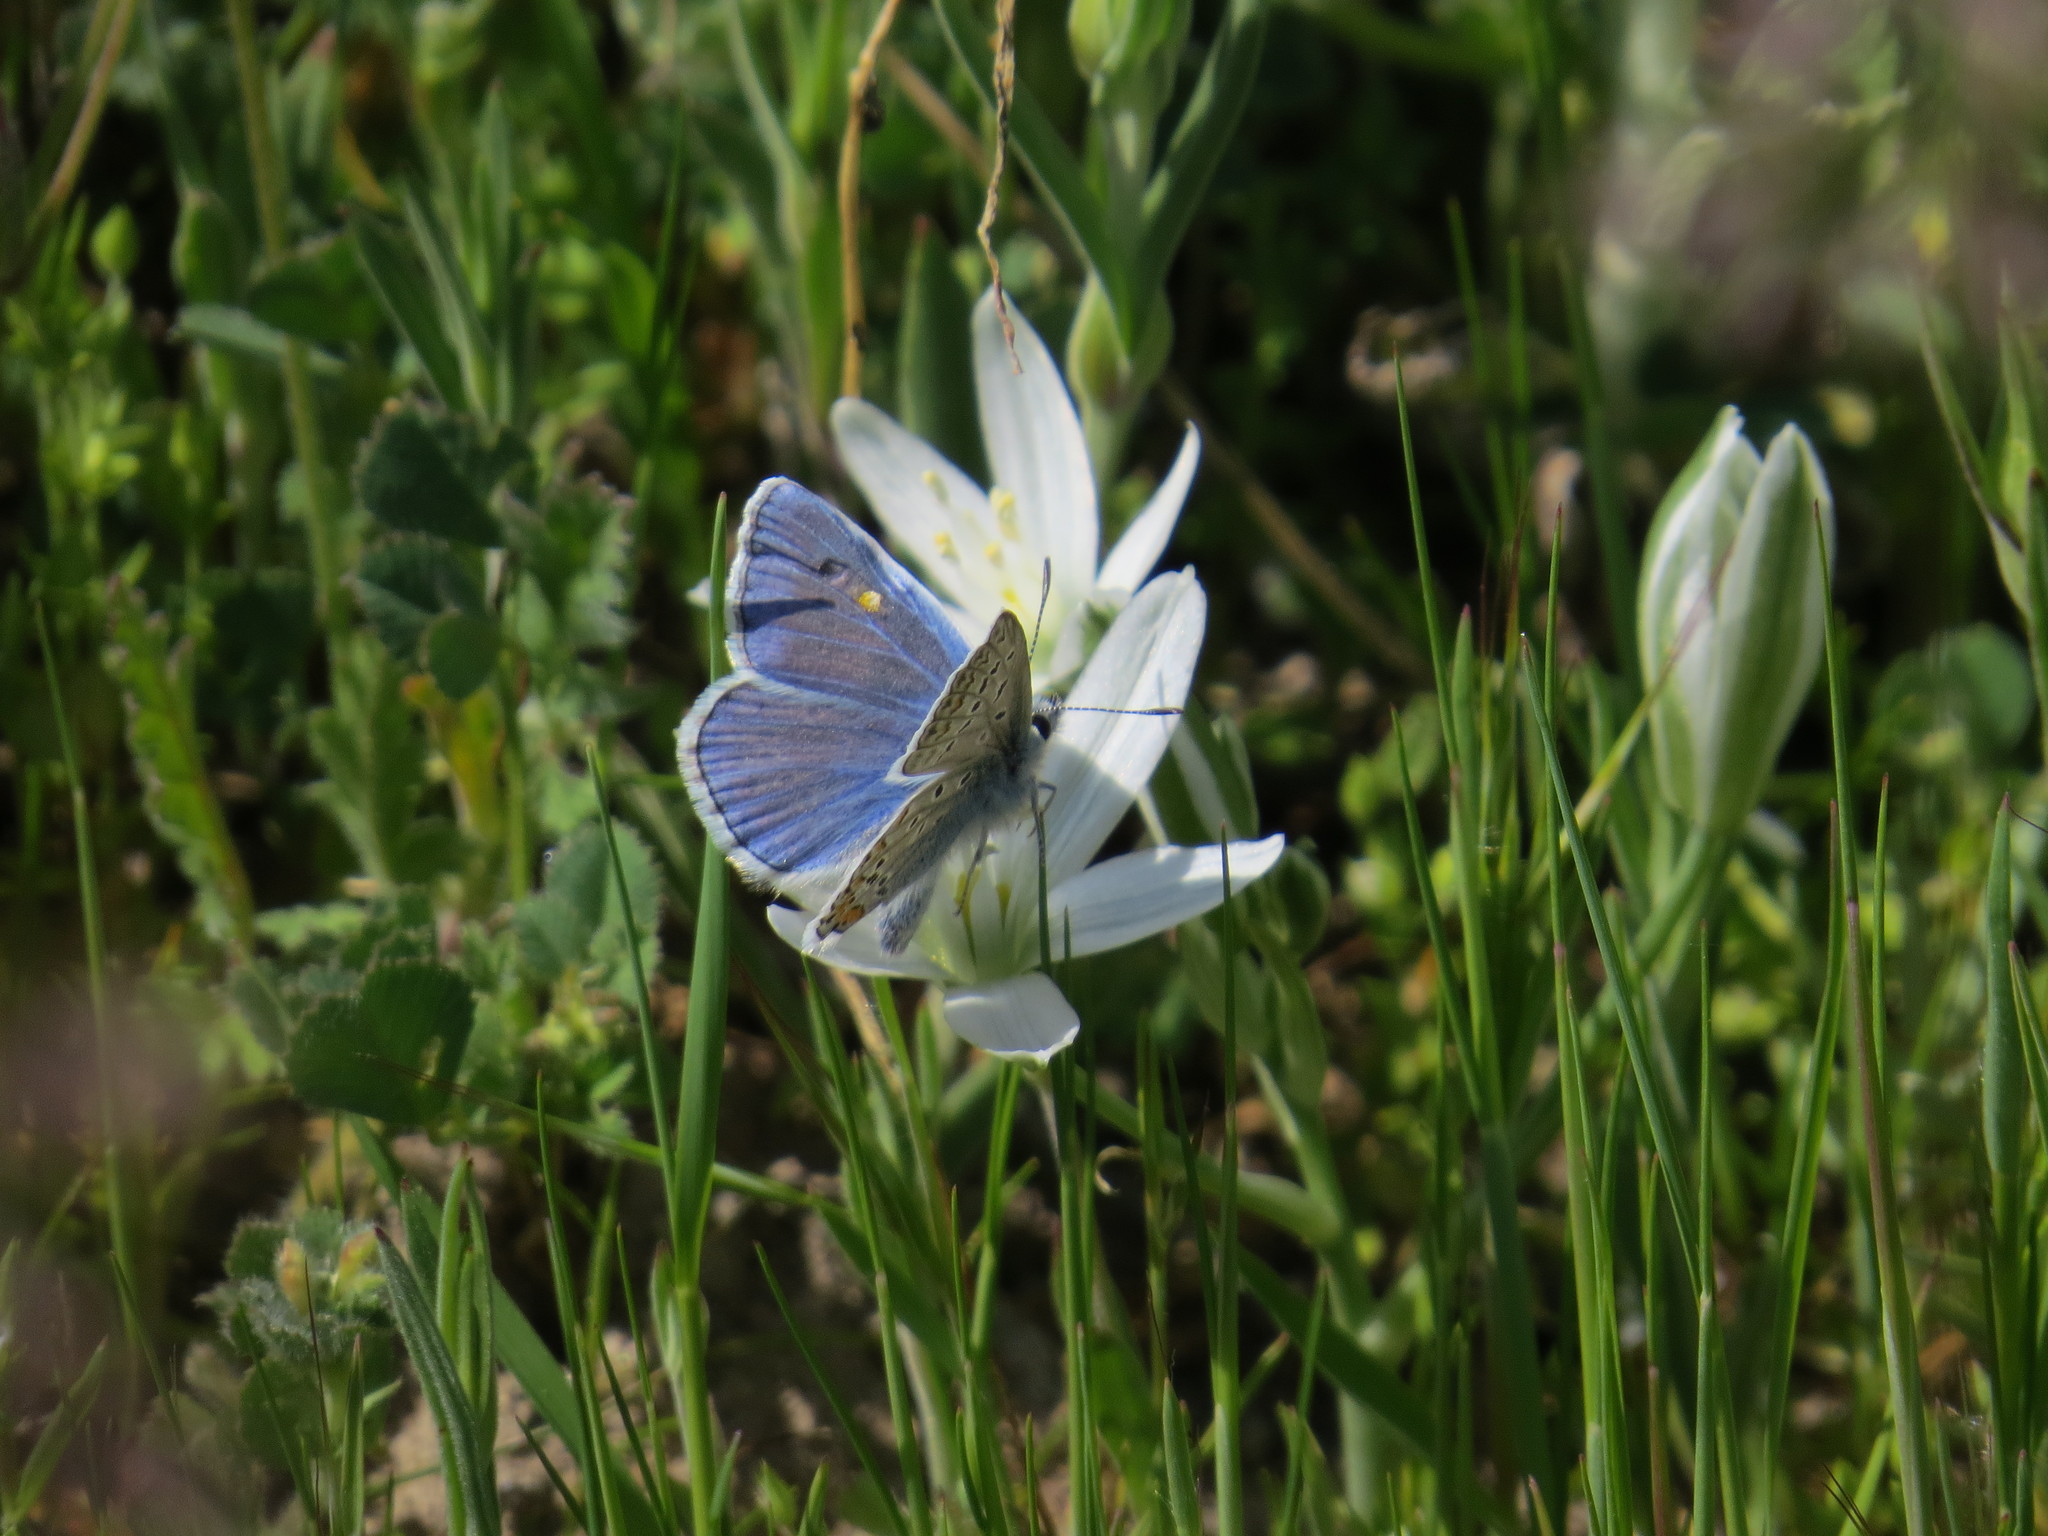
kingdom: Animalia
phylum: Arthropoda
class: Insecta
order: Lepidoptera
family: Lycaenidae
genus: Polyommatus
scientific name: Polyommatus icarus
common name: Common blue
